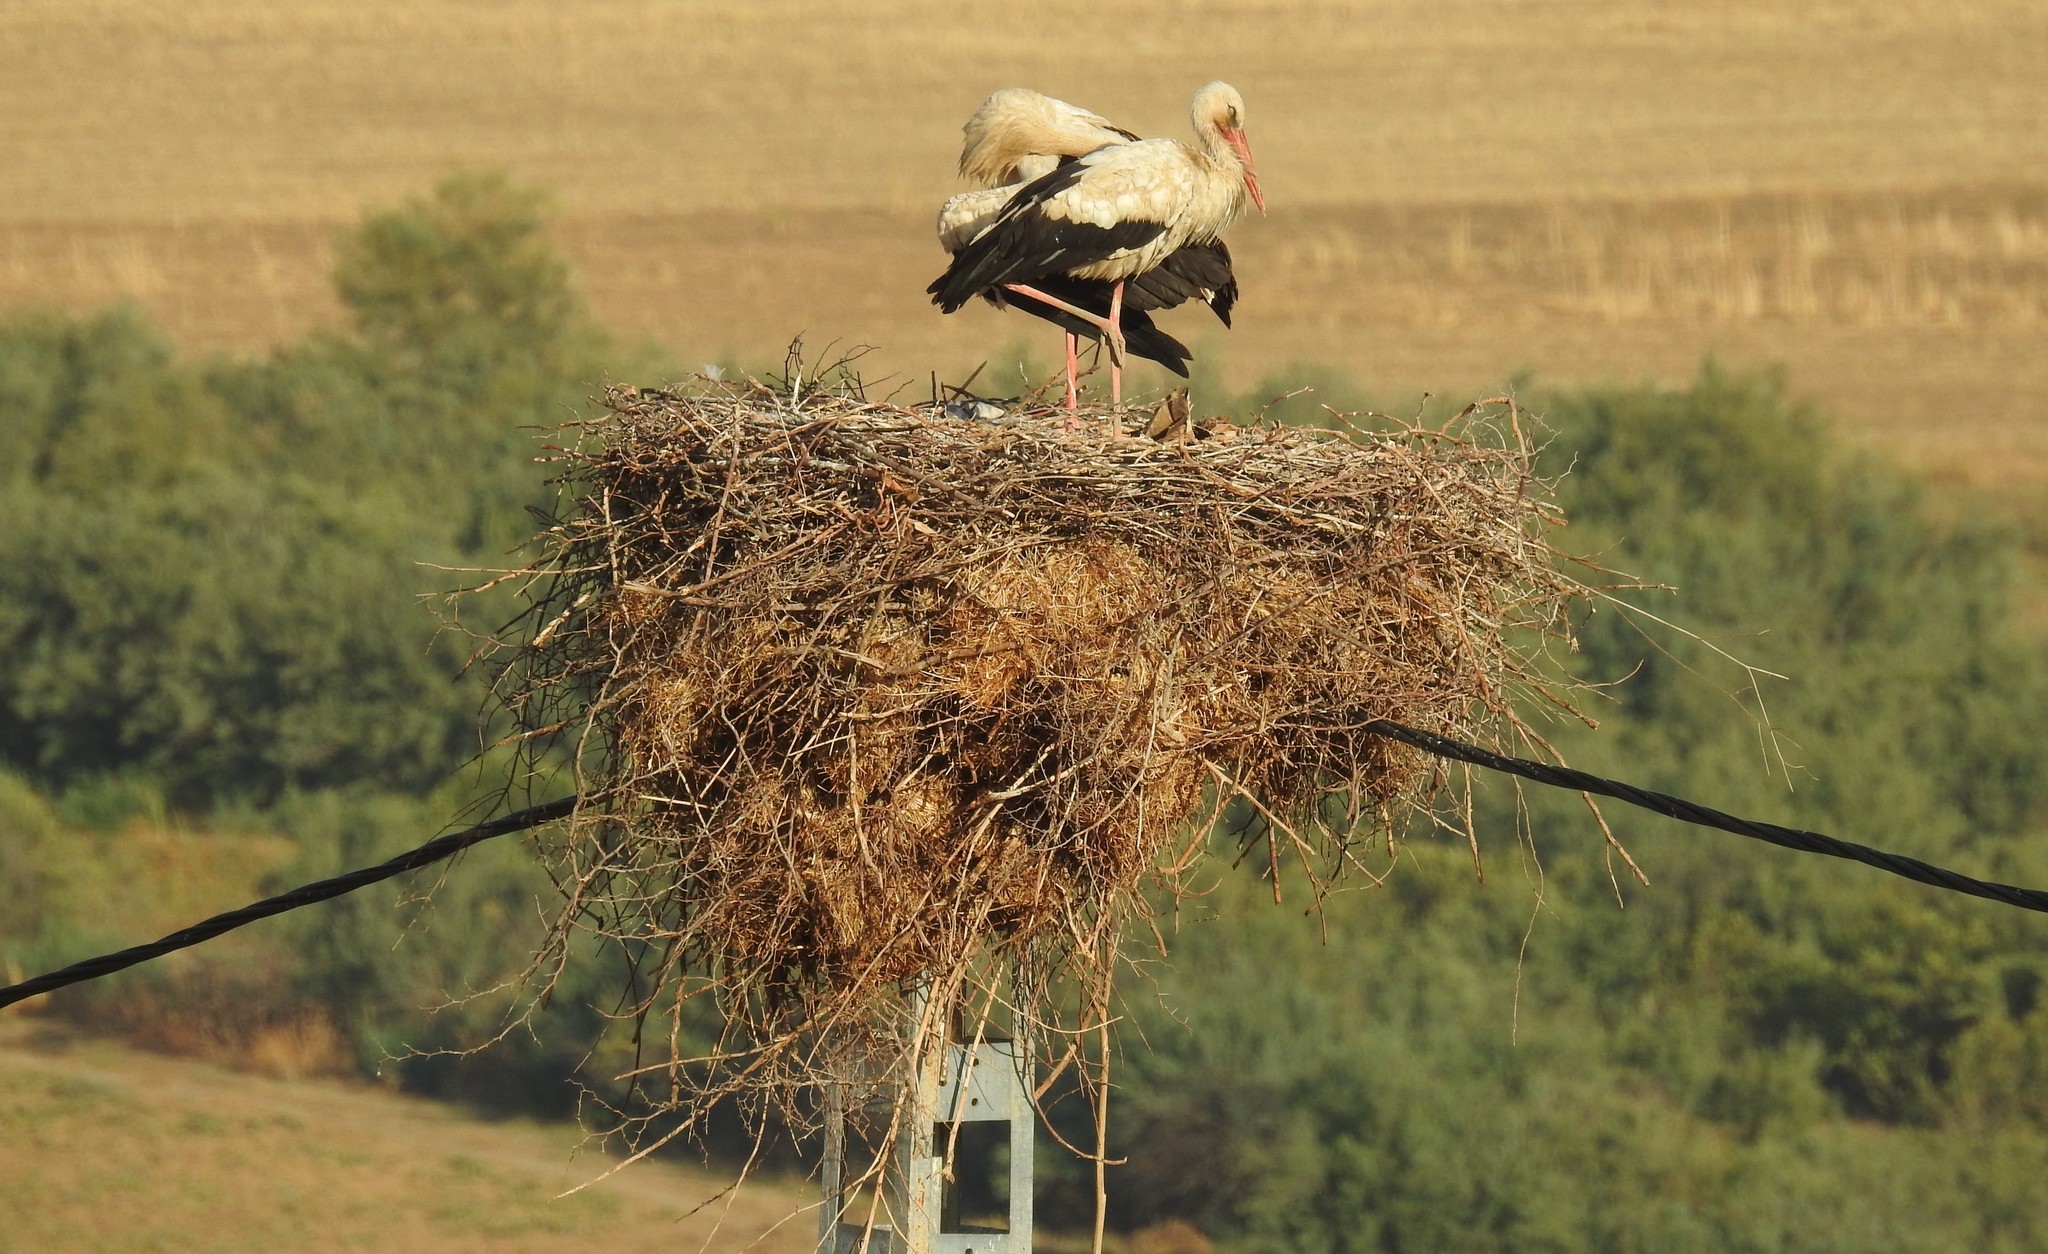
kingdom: Animalia
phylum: Chordata
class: Aves
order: Ciconiiformes
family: Ciconiidae
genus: Ciconia
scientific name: Ciconia ciconia
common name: White stork
